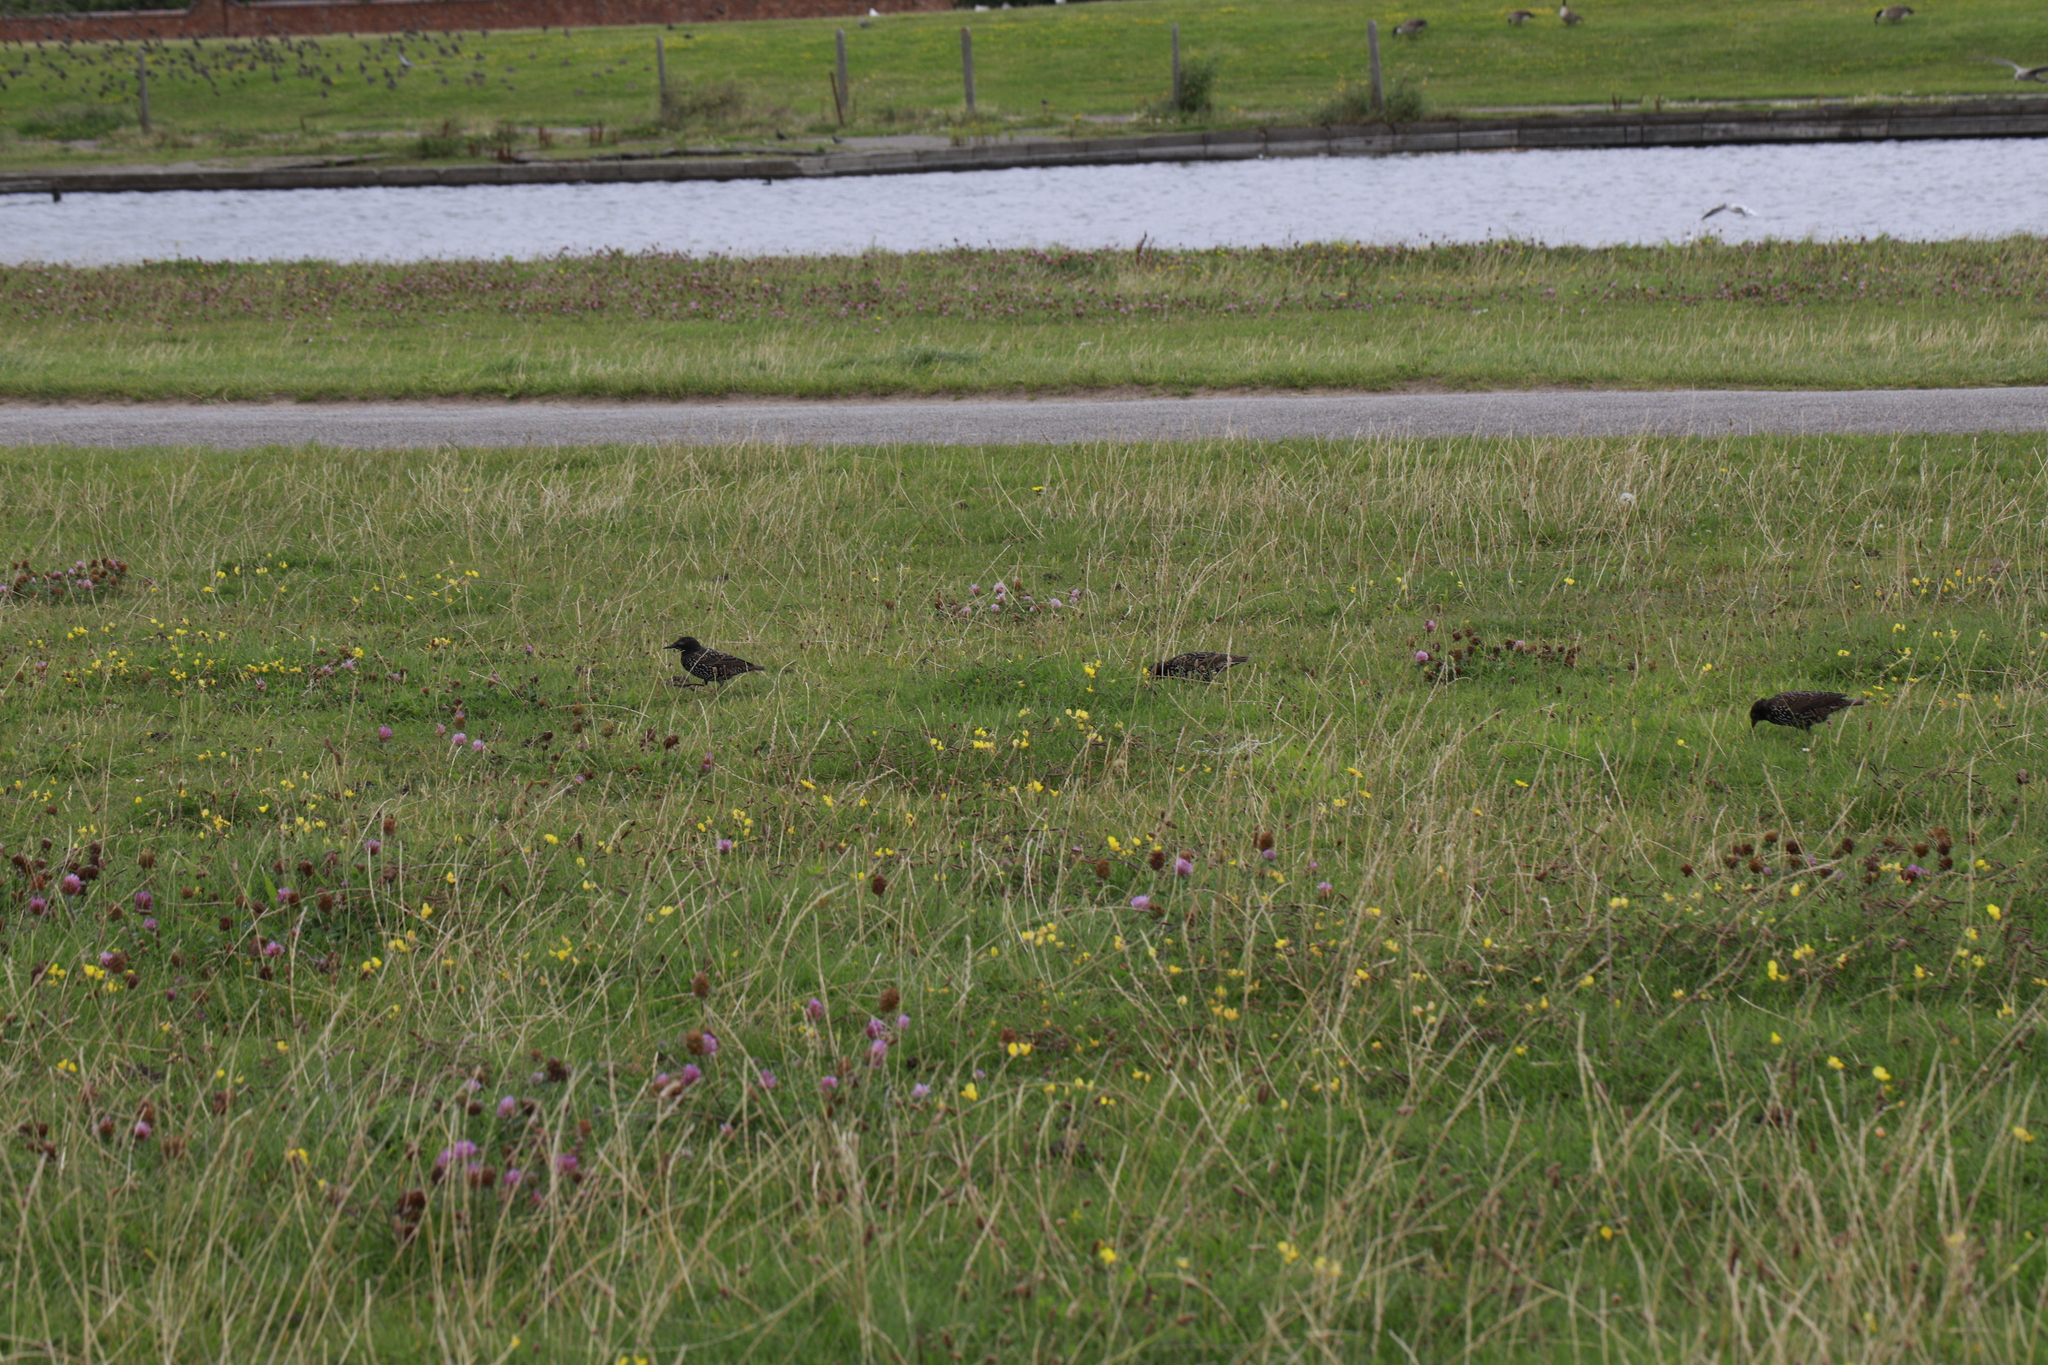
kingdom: Animalia
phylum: Chordata
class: Aves
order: Passeriformes
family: Sturnidae
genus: Sturnus
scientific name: Sturnus vulgaris
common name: Common starling
